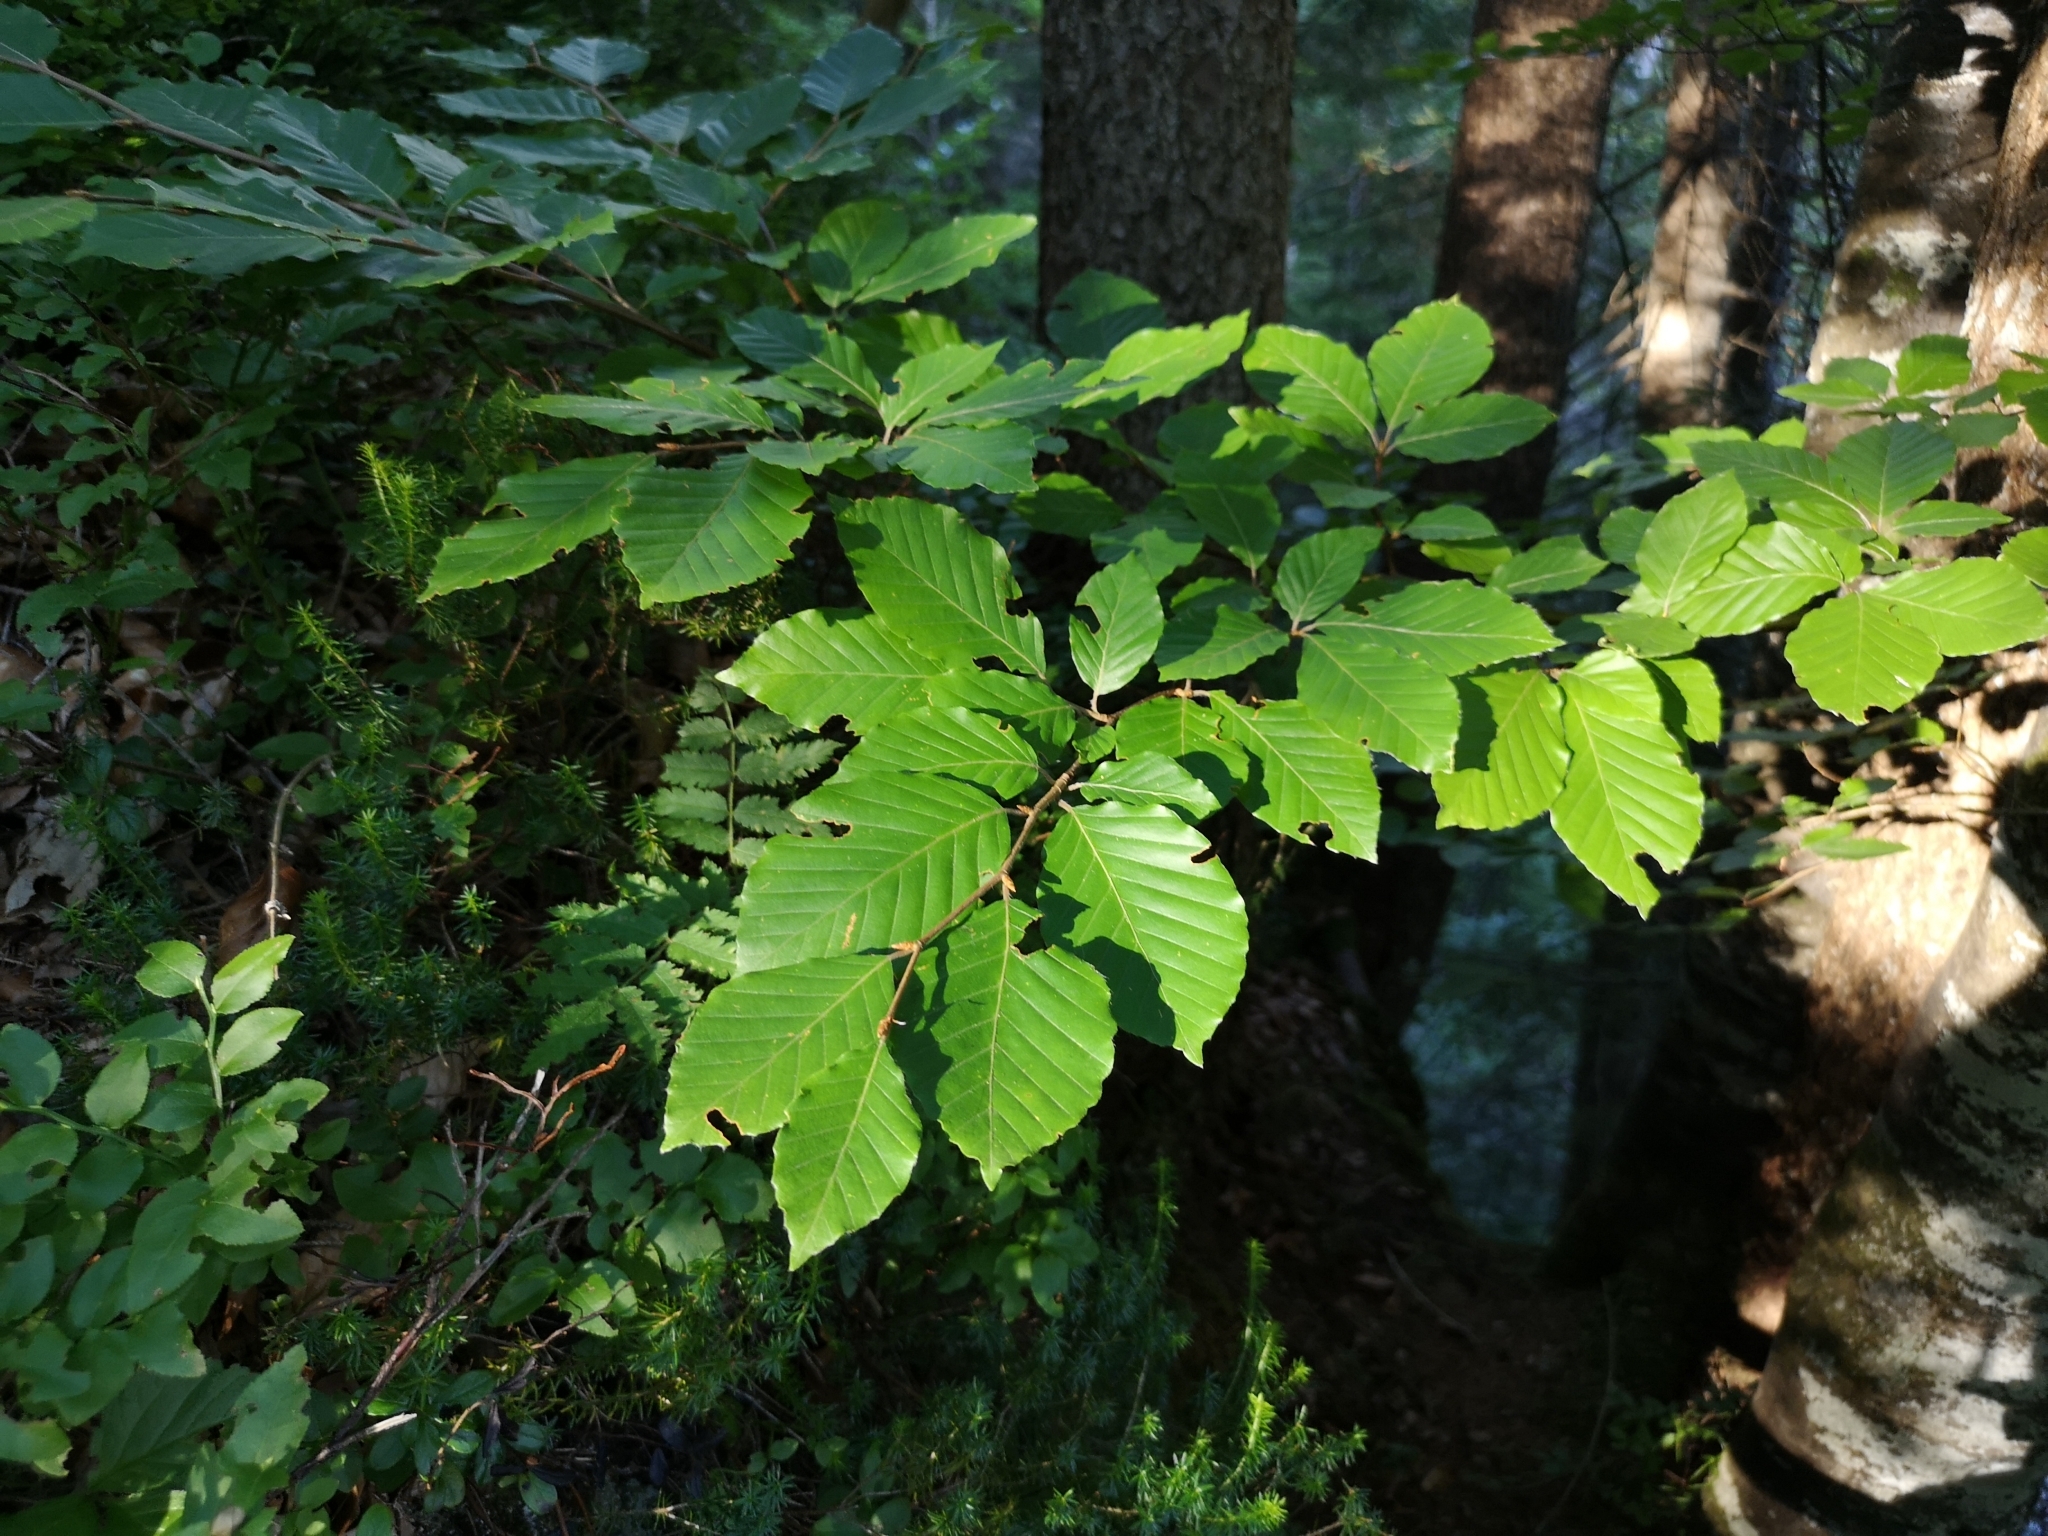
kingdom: Plantae
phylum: Tracheophyta
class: Magnoliopsida
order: Fagales
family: Fagaceae
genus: Fagus
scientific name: Fagus sylvatica
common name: Beech
